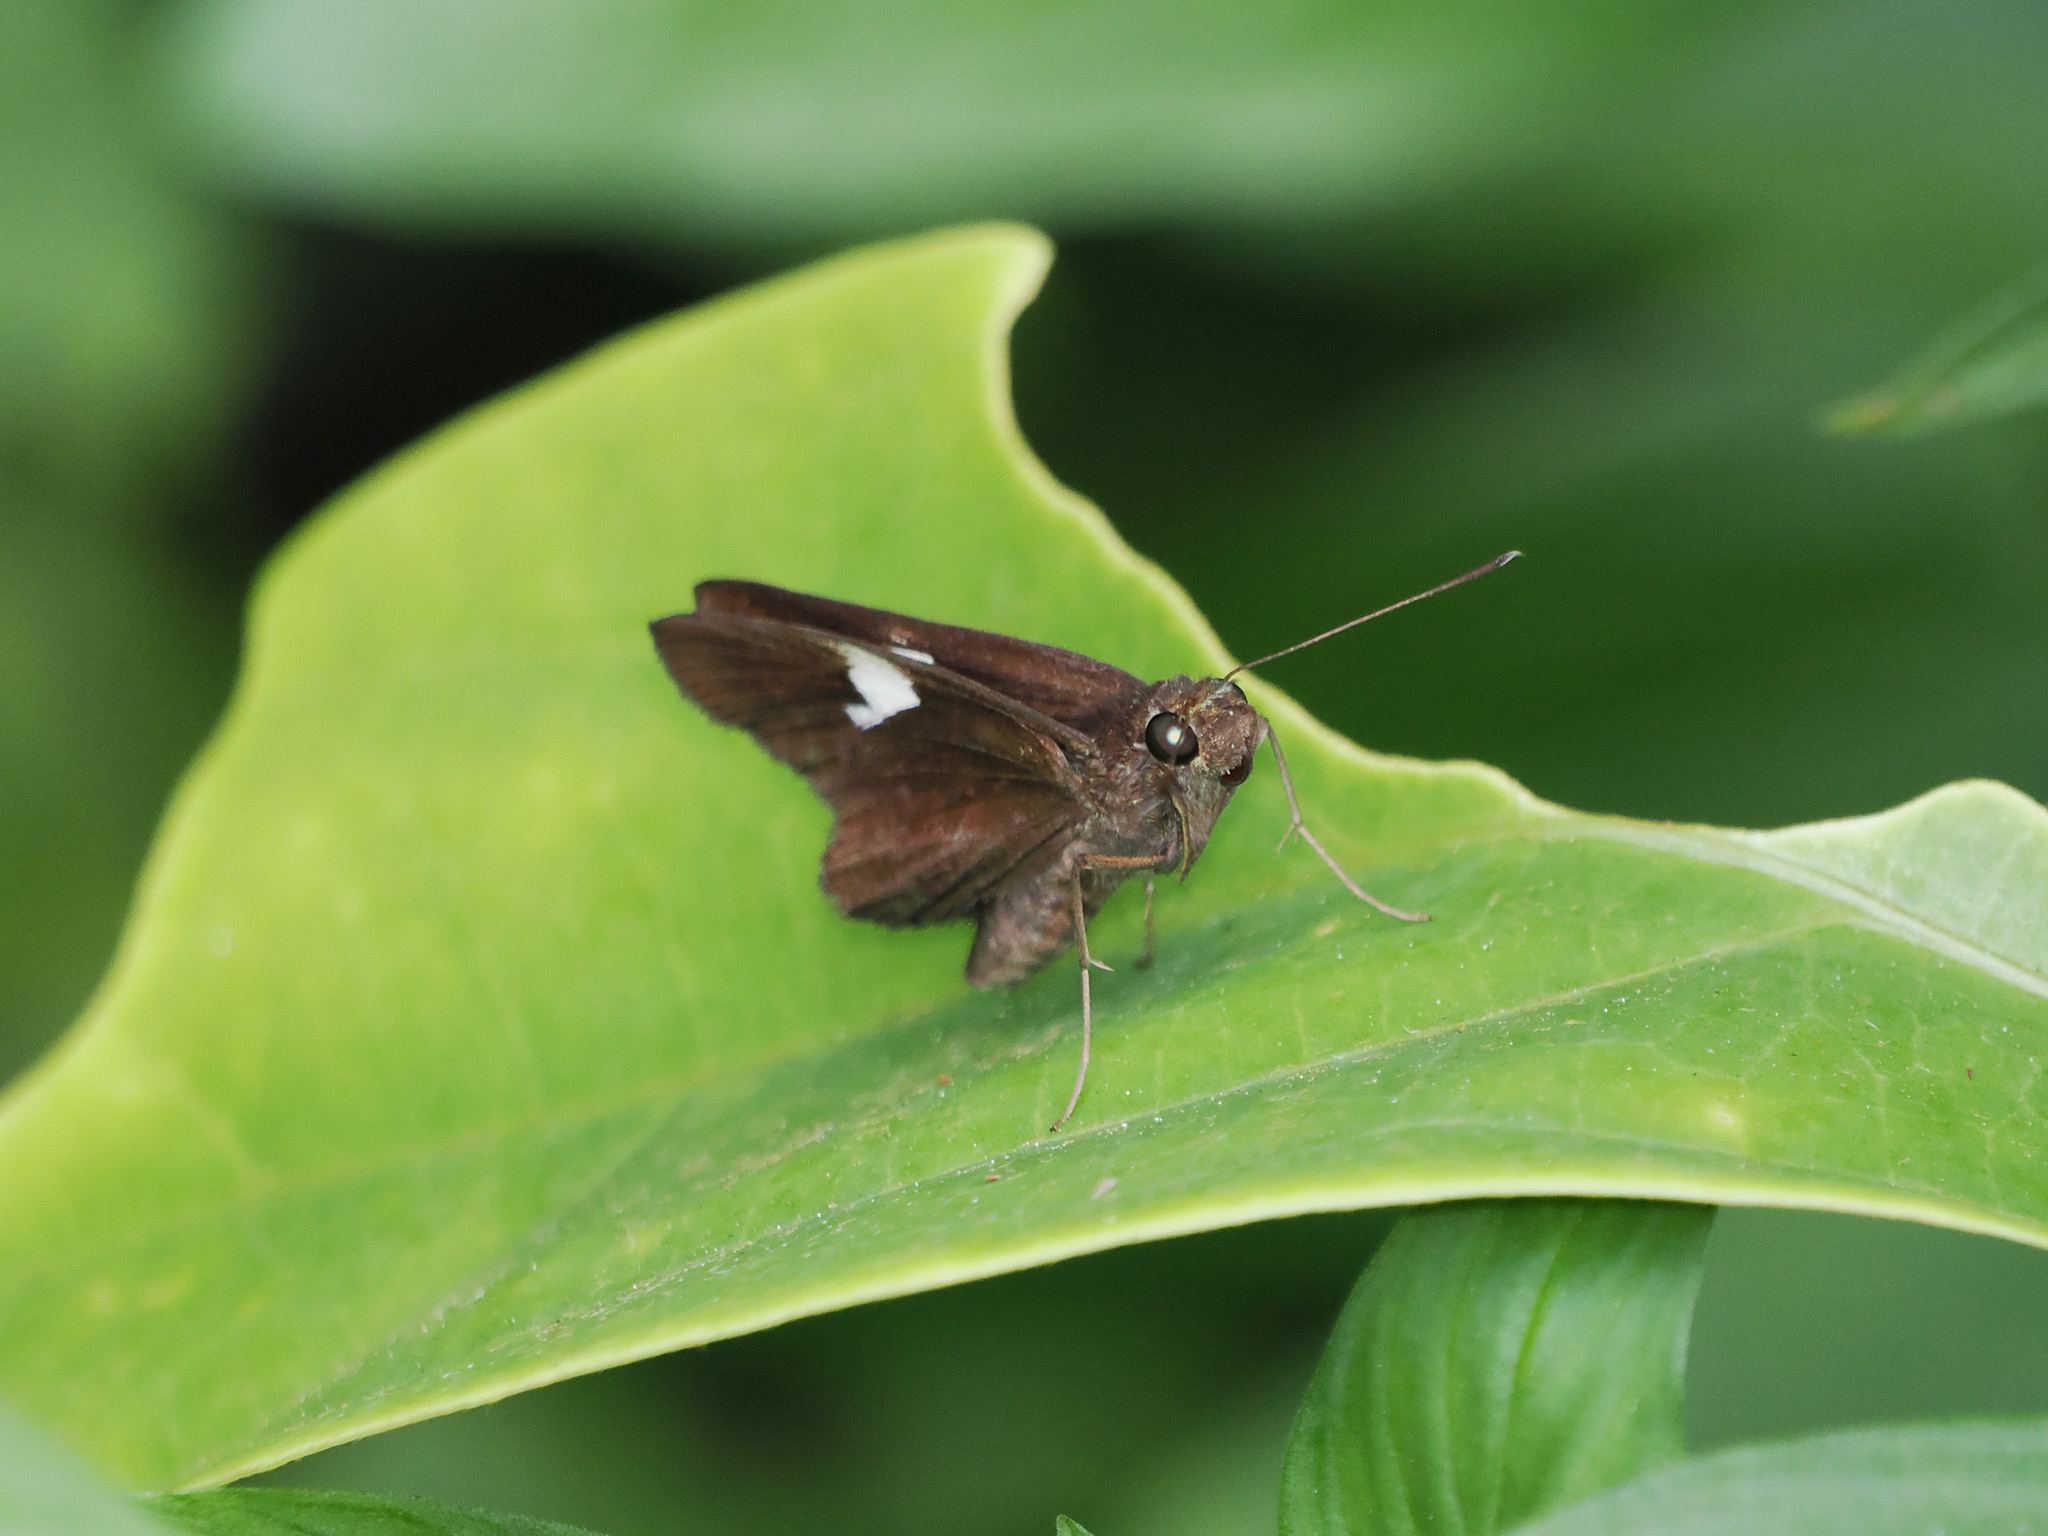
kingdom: Animalia
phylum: Arthropoda
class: Insecta
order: Lepidoptera
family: Hesperiidae
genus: Quedara
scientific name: Quedara monteithi
